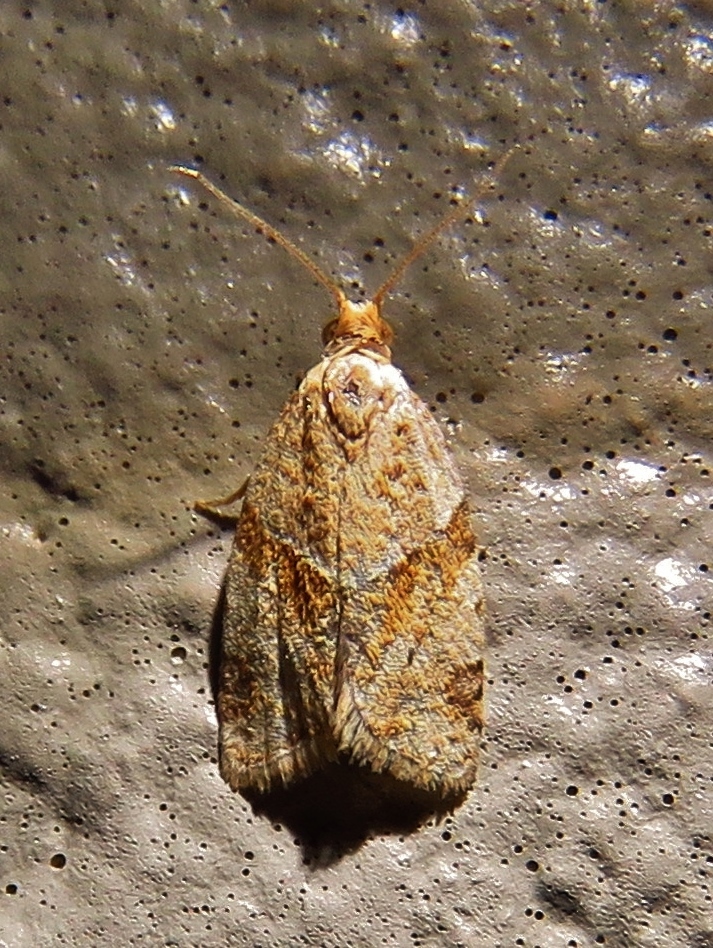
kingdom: Animalia
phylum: Arthropoda
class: Insecta
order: Lepidoptera
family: Tortricidae
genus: Clepsis
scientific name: Clepsis peritana
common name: Garden tortrix
